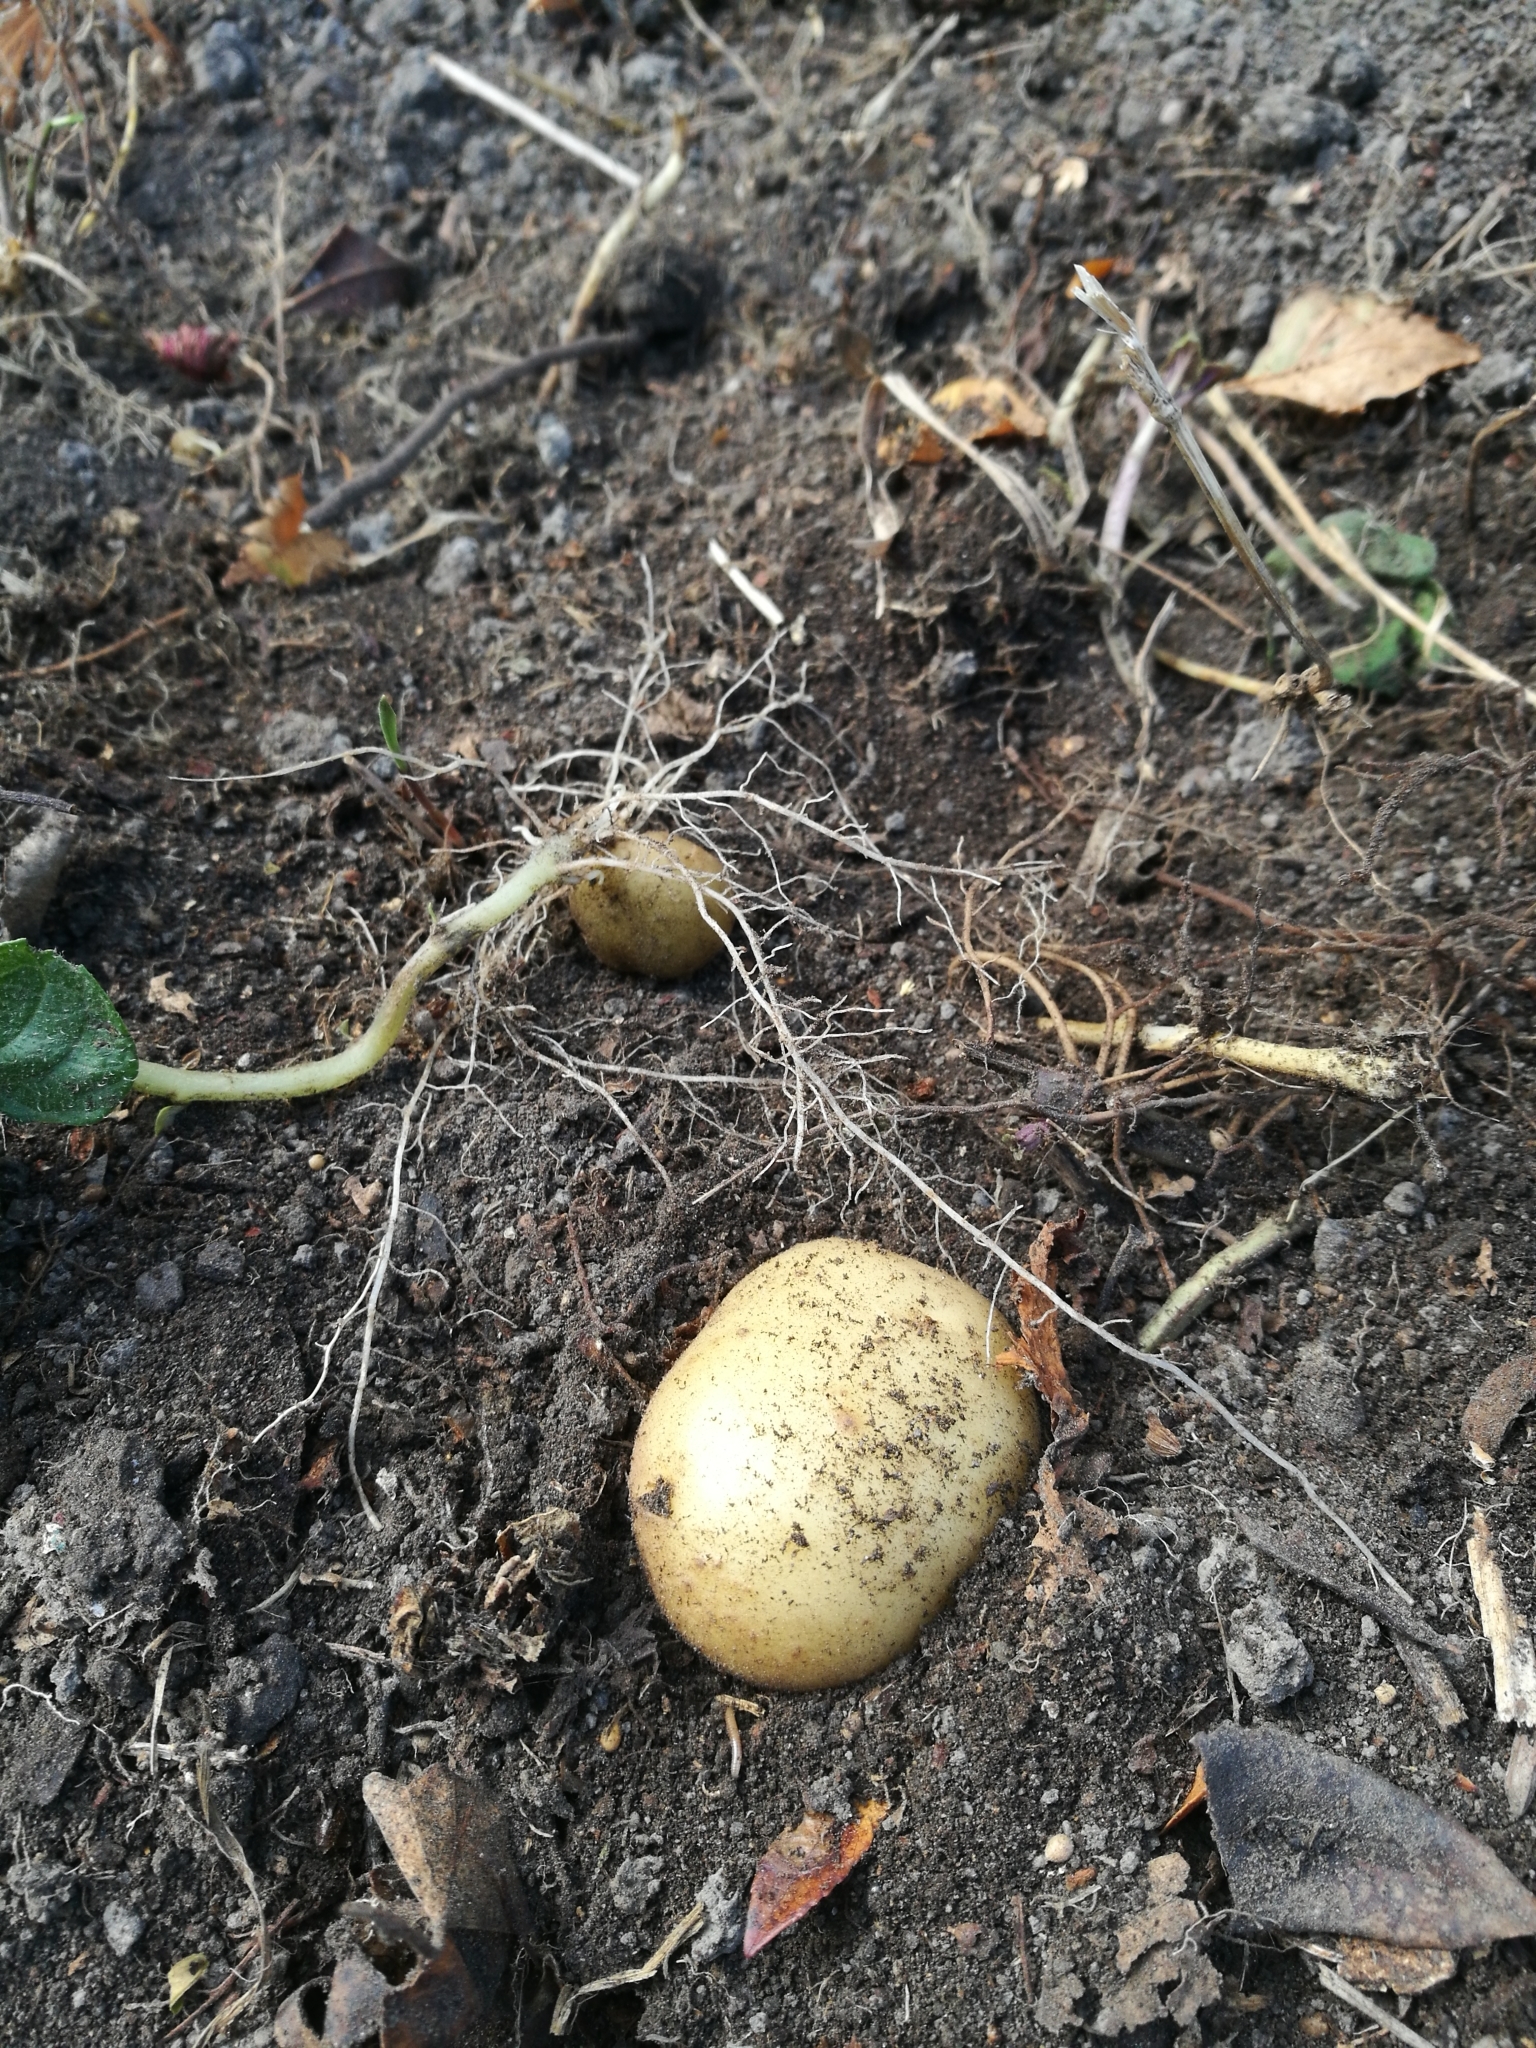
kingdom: Plantae
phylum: Tracheophyta
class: Magnoliopsida
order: Solanales
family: Solanaceae
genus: Solanum
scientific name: Solanum tuberosum
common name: Potato
